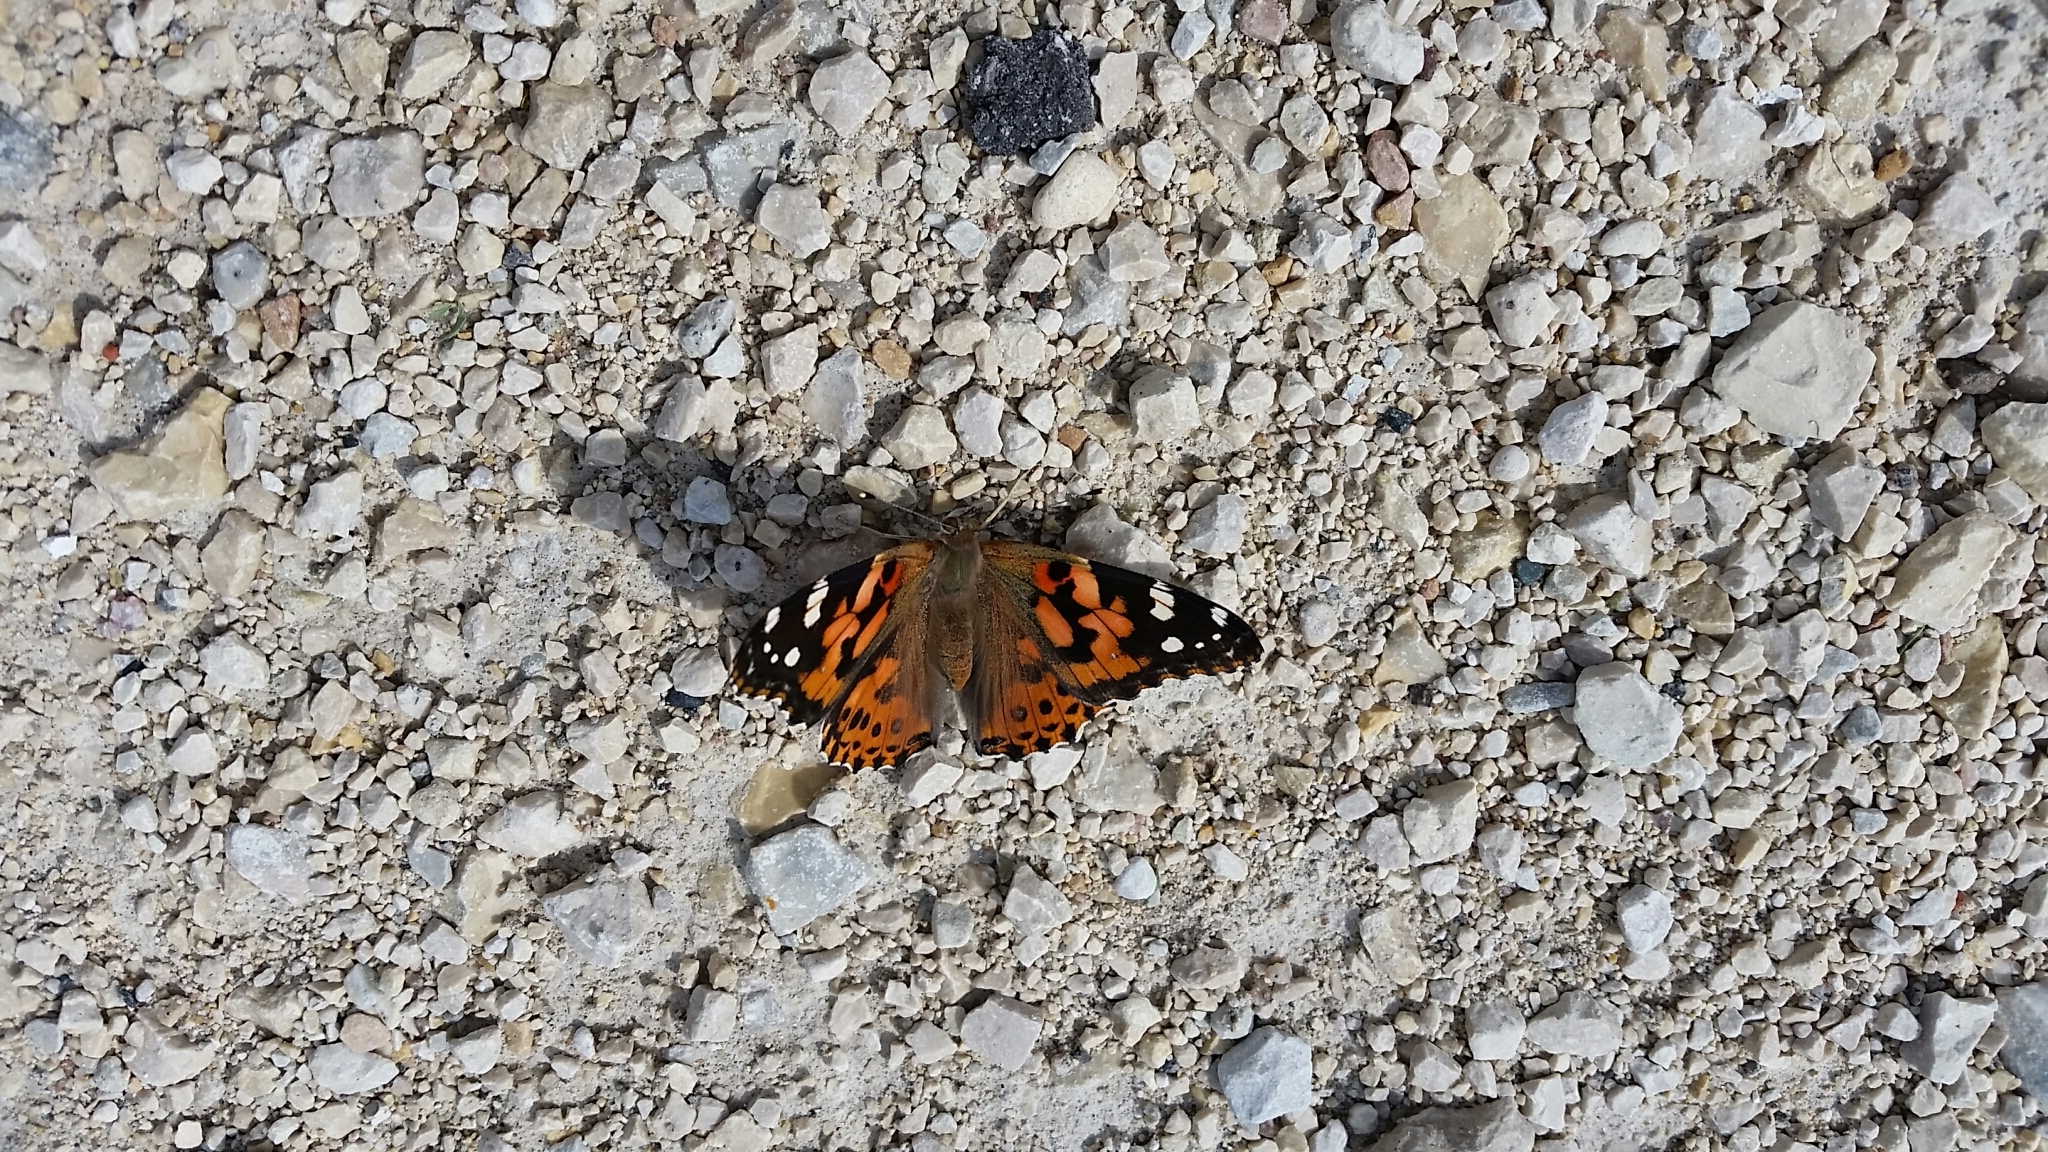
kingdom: Animalia
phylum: Arthropoda
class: Insecta
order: Lepidoptera
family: Nymphalidae
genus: Vanessa
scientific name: Vanessa cardui
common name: Painted lady
